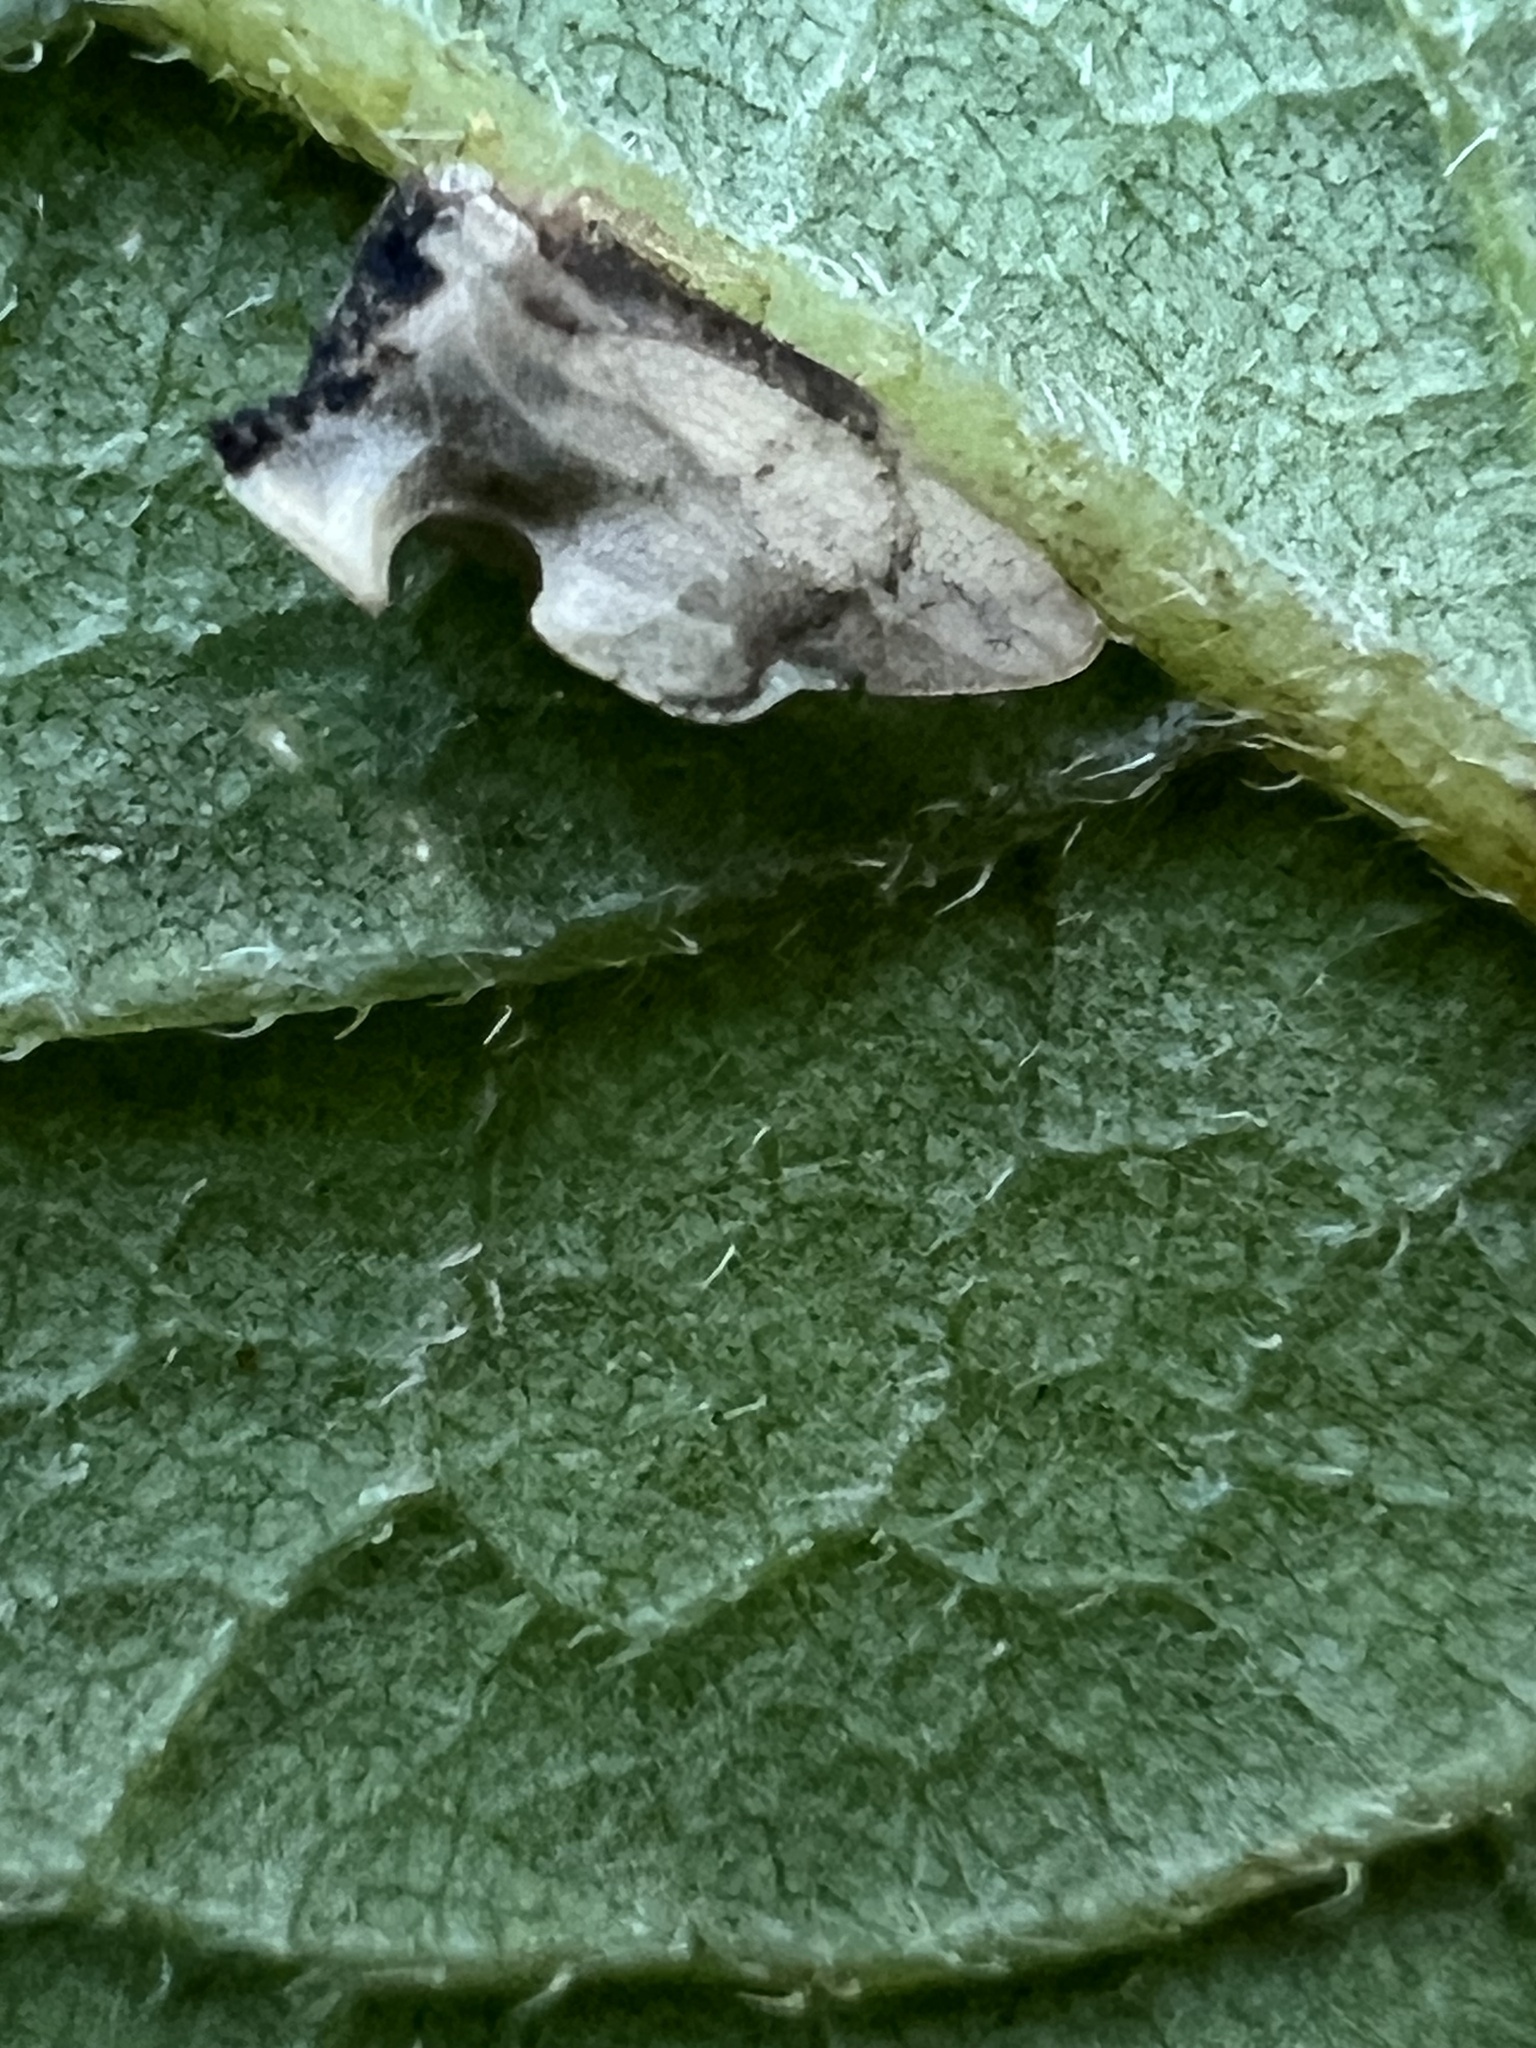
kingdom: Animalia
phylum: Arthropoda
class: Insecta
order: Hemiptera
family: Membracidae
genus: Entylia
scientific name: Entylia carinata
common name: Keeled treehopper
